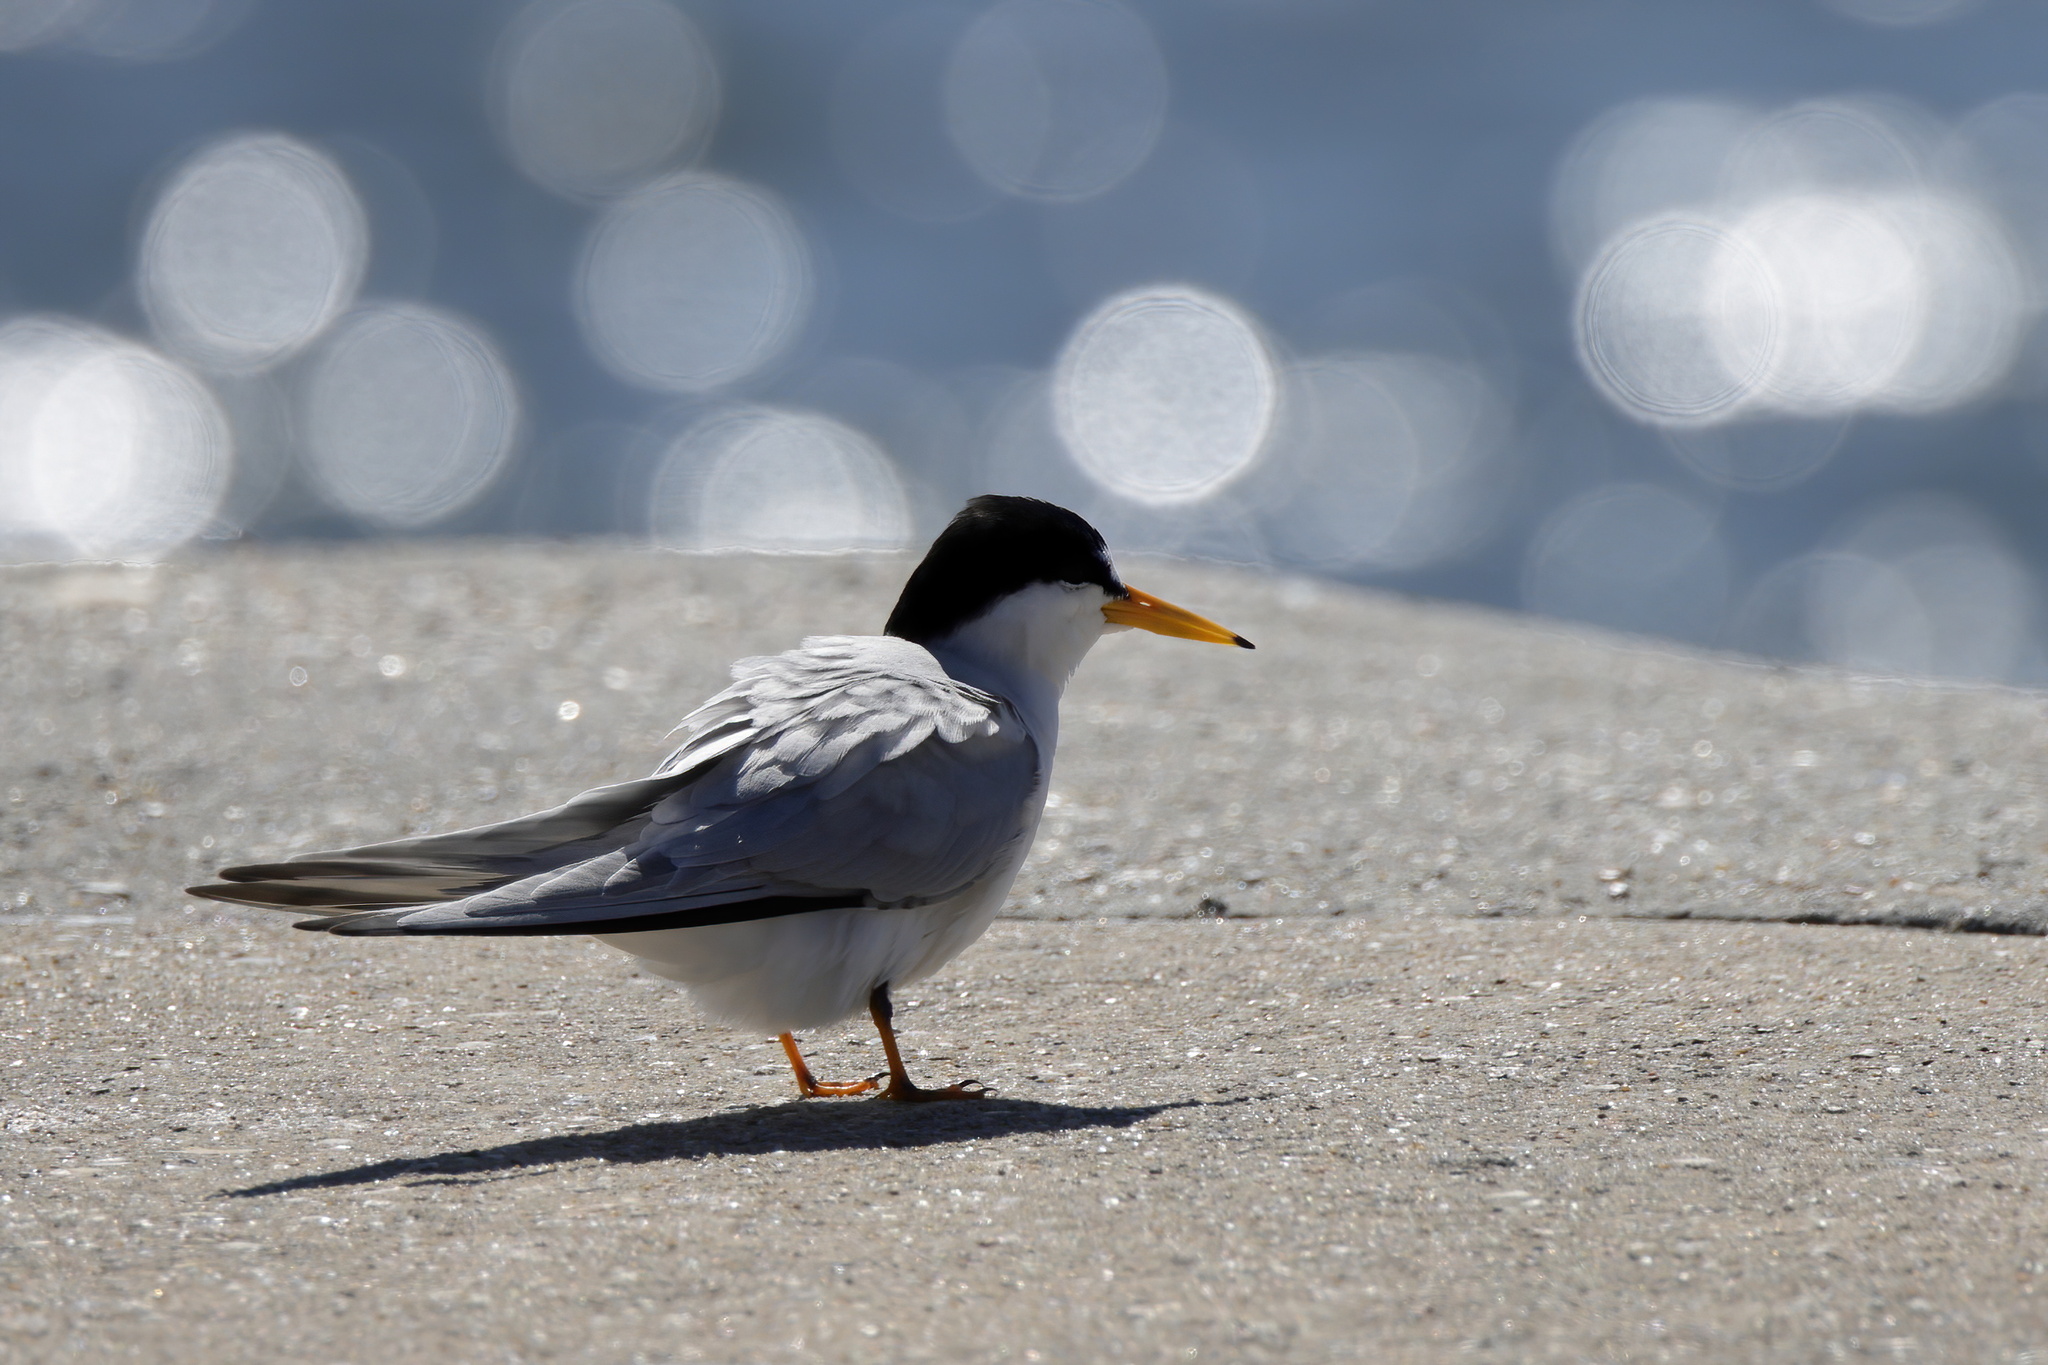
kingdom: Animalia
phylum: Chordata
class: Aves
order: Charadriiformes
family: Laridae
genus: Sternula
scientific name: Sternula antillarum
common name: Least tern
